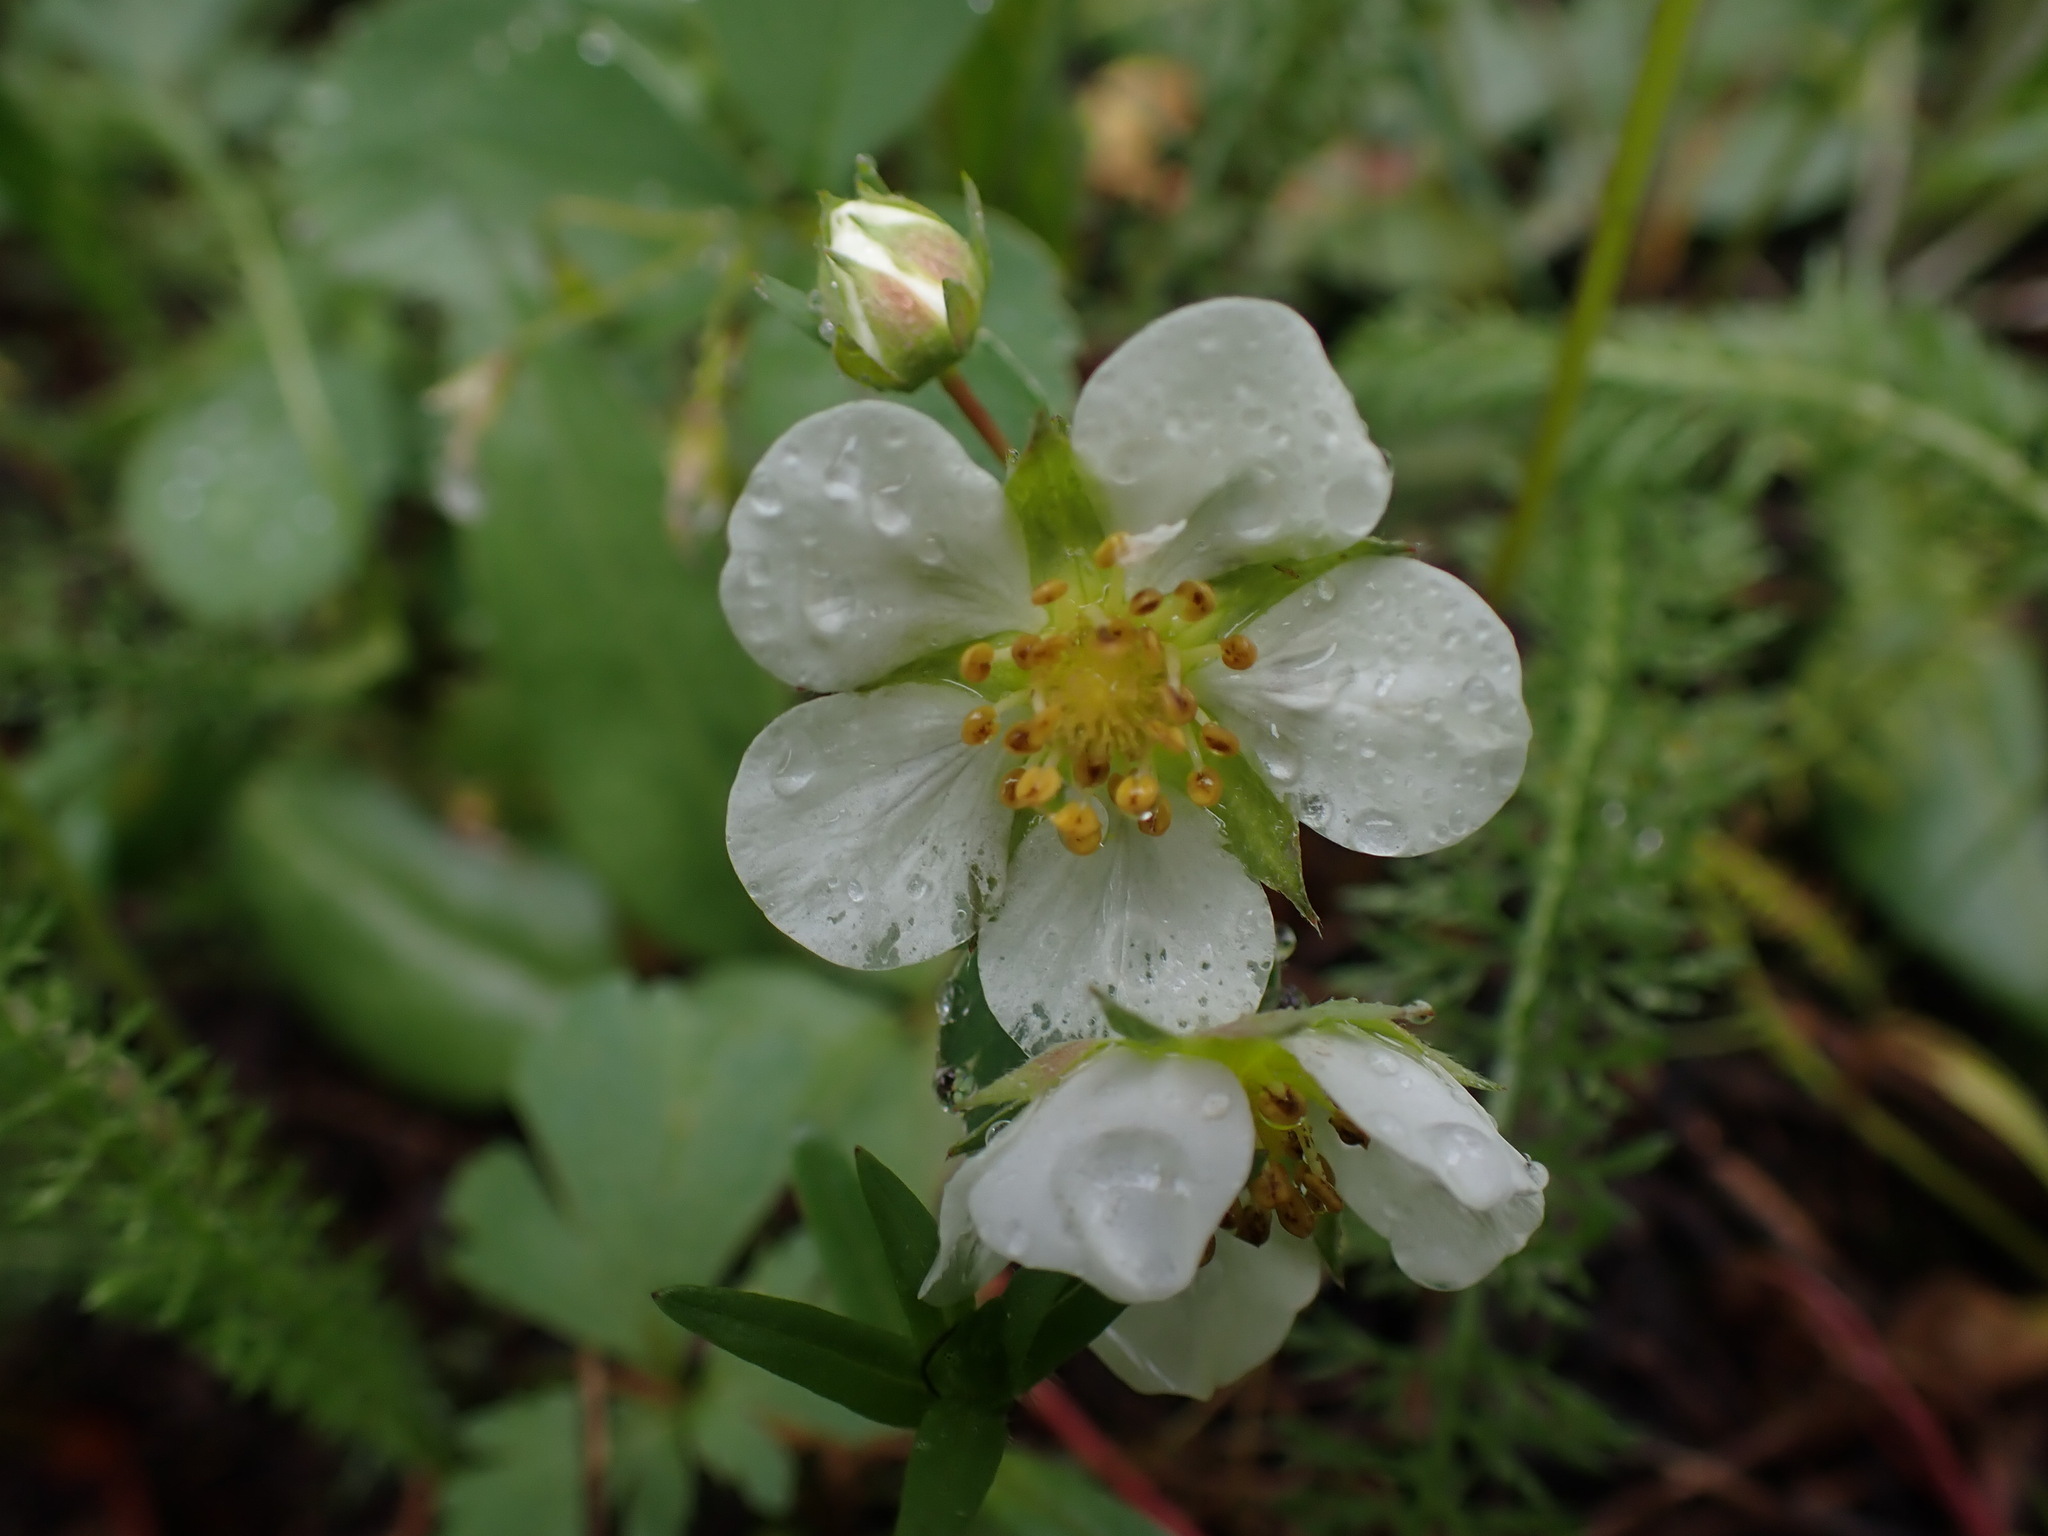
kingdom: Plantae
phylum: Tracheophyta
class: Magnoliopsida
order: Rosales
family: Rosaceae
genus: Fragaria
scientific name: Fragaria virginiana
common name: Thickleaved wild strawberry
